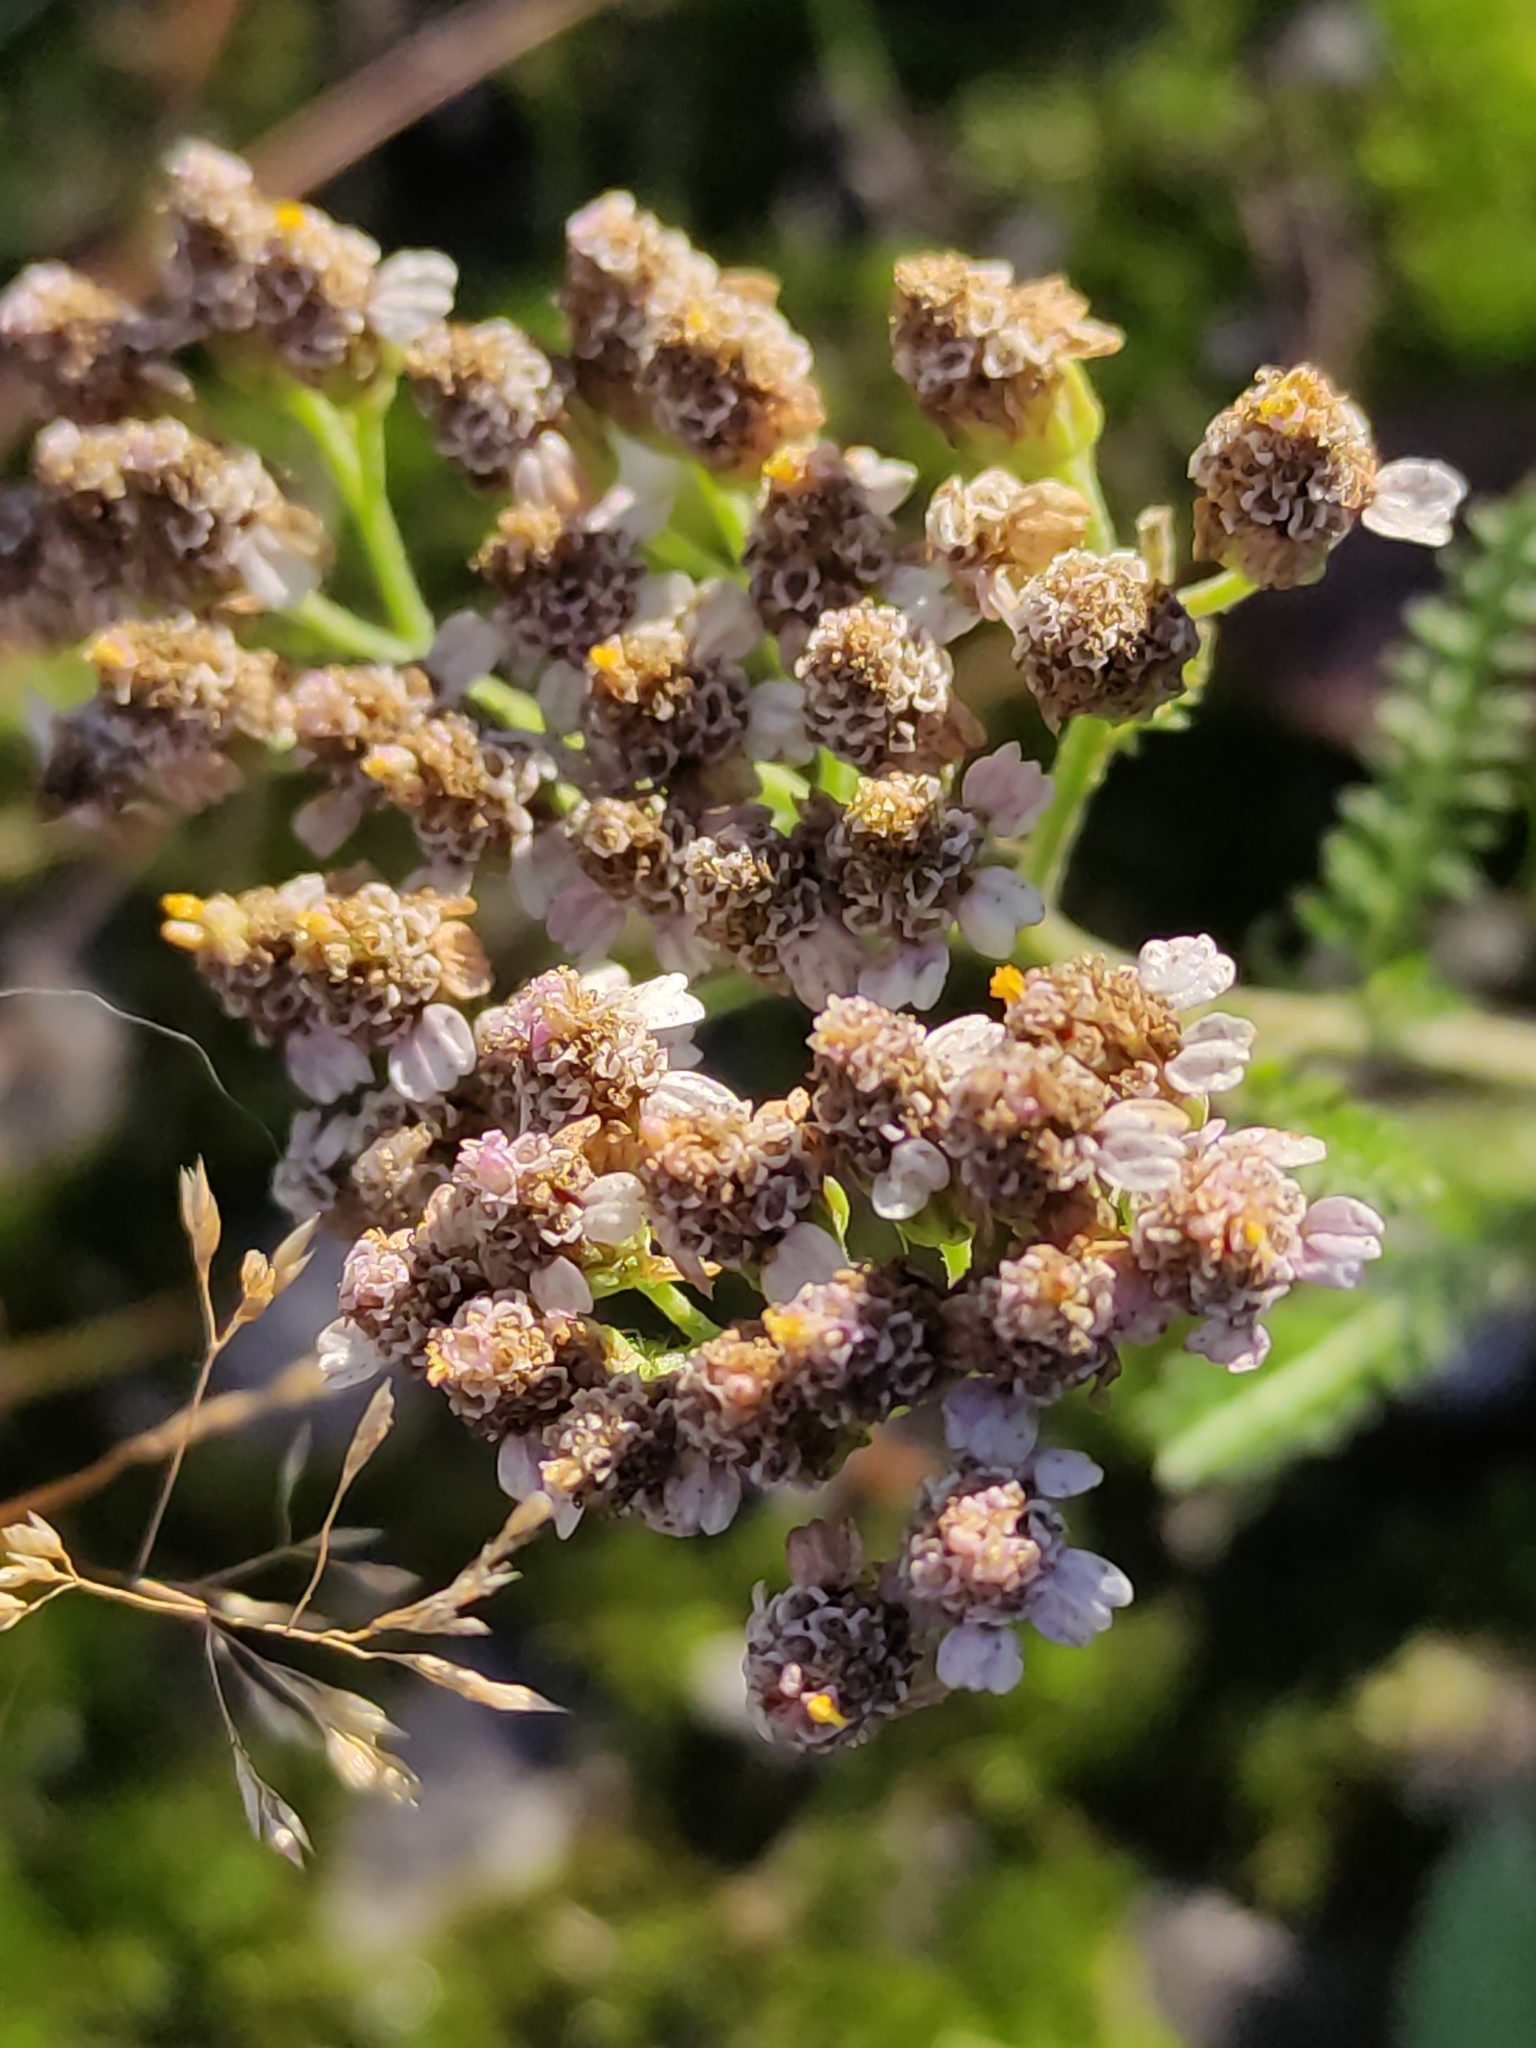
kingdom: Plantae
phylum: Tracheophyta
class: Magnoliopsida
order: Asterales
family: Asteraceae
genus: Achillea
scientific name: Achillea millefolium
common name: Yarrow
